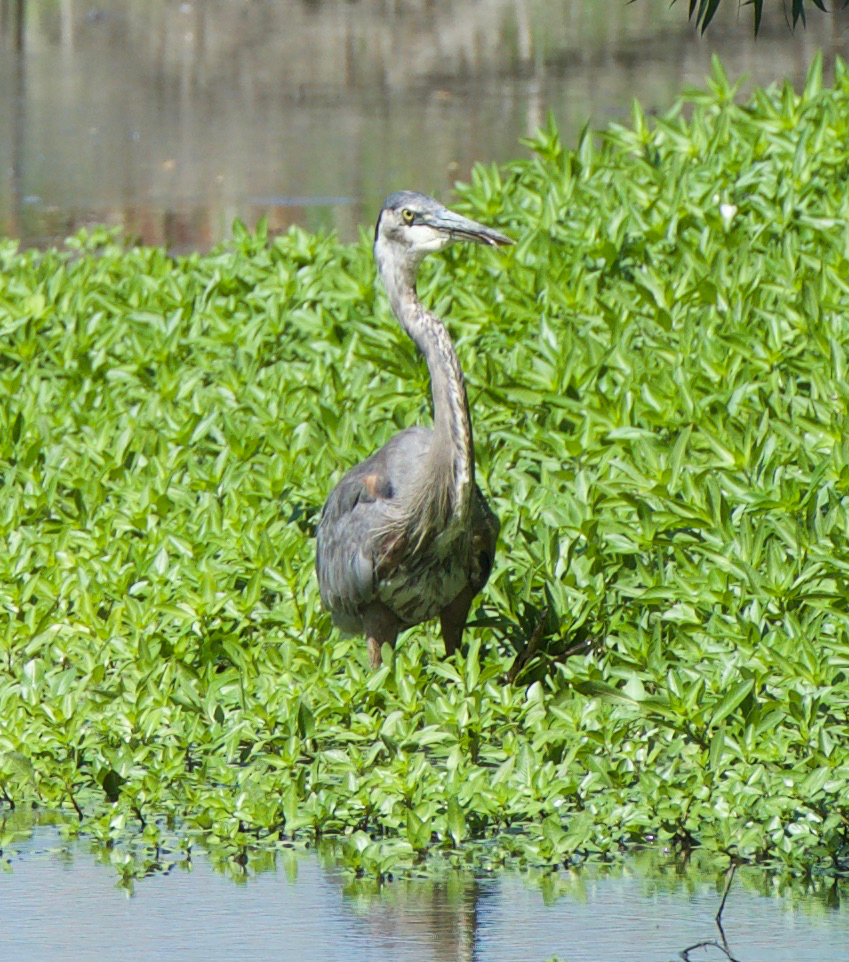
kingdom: Animalia
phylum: Chordata
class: Aves
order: Pelecaniformes
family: Ardeidae
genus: Ardea
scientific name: Ardea herodias
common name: Great blue heron
